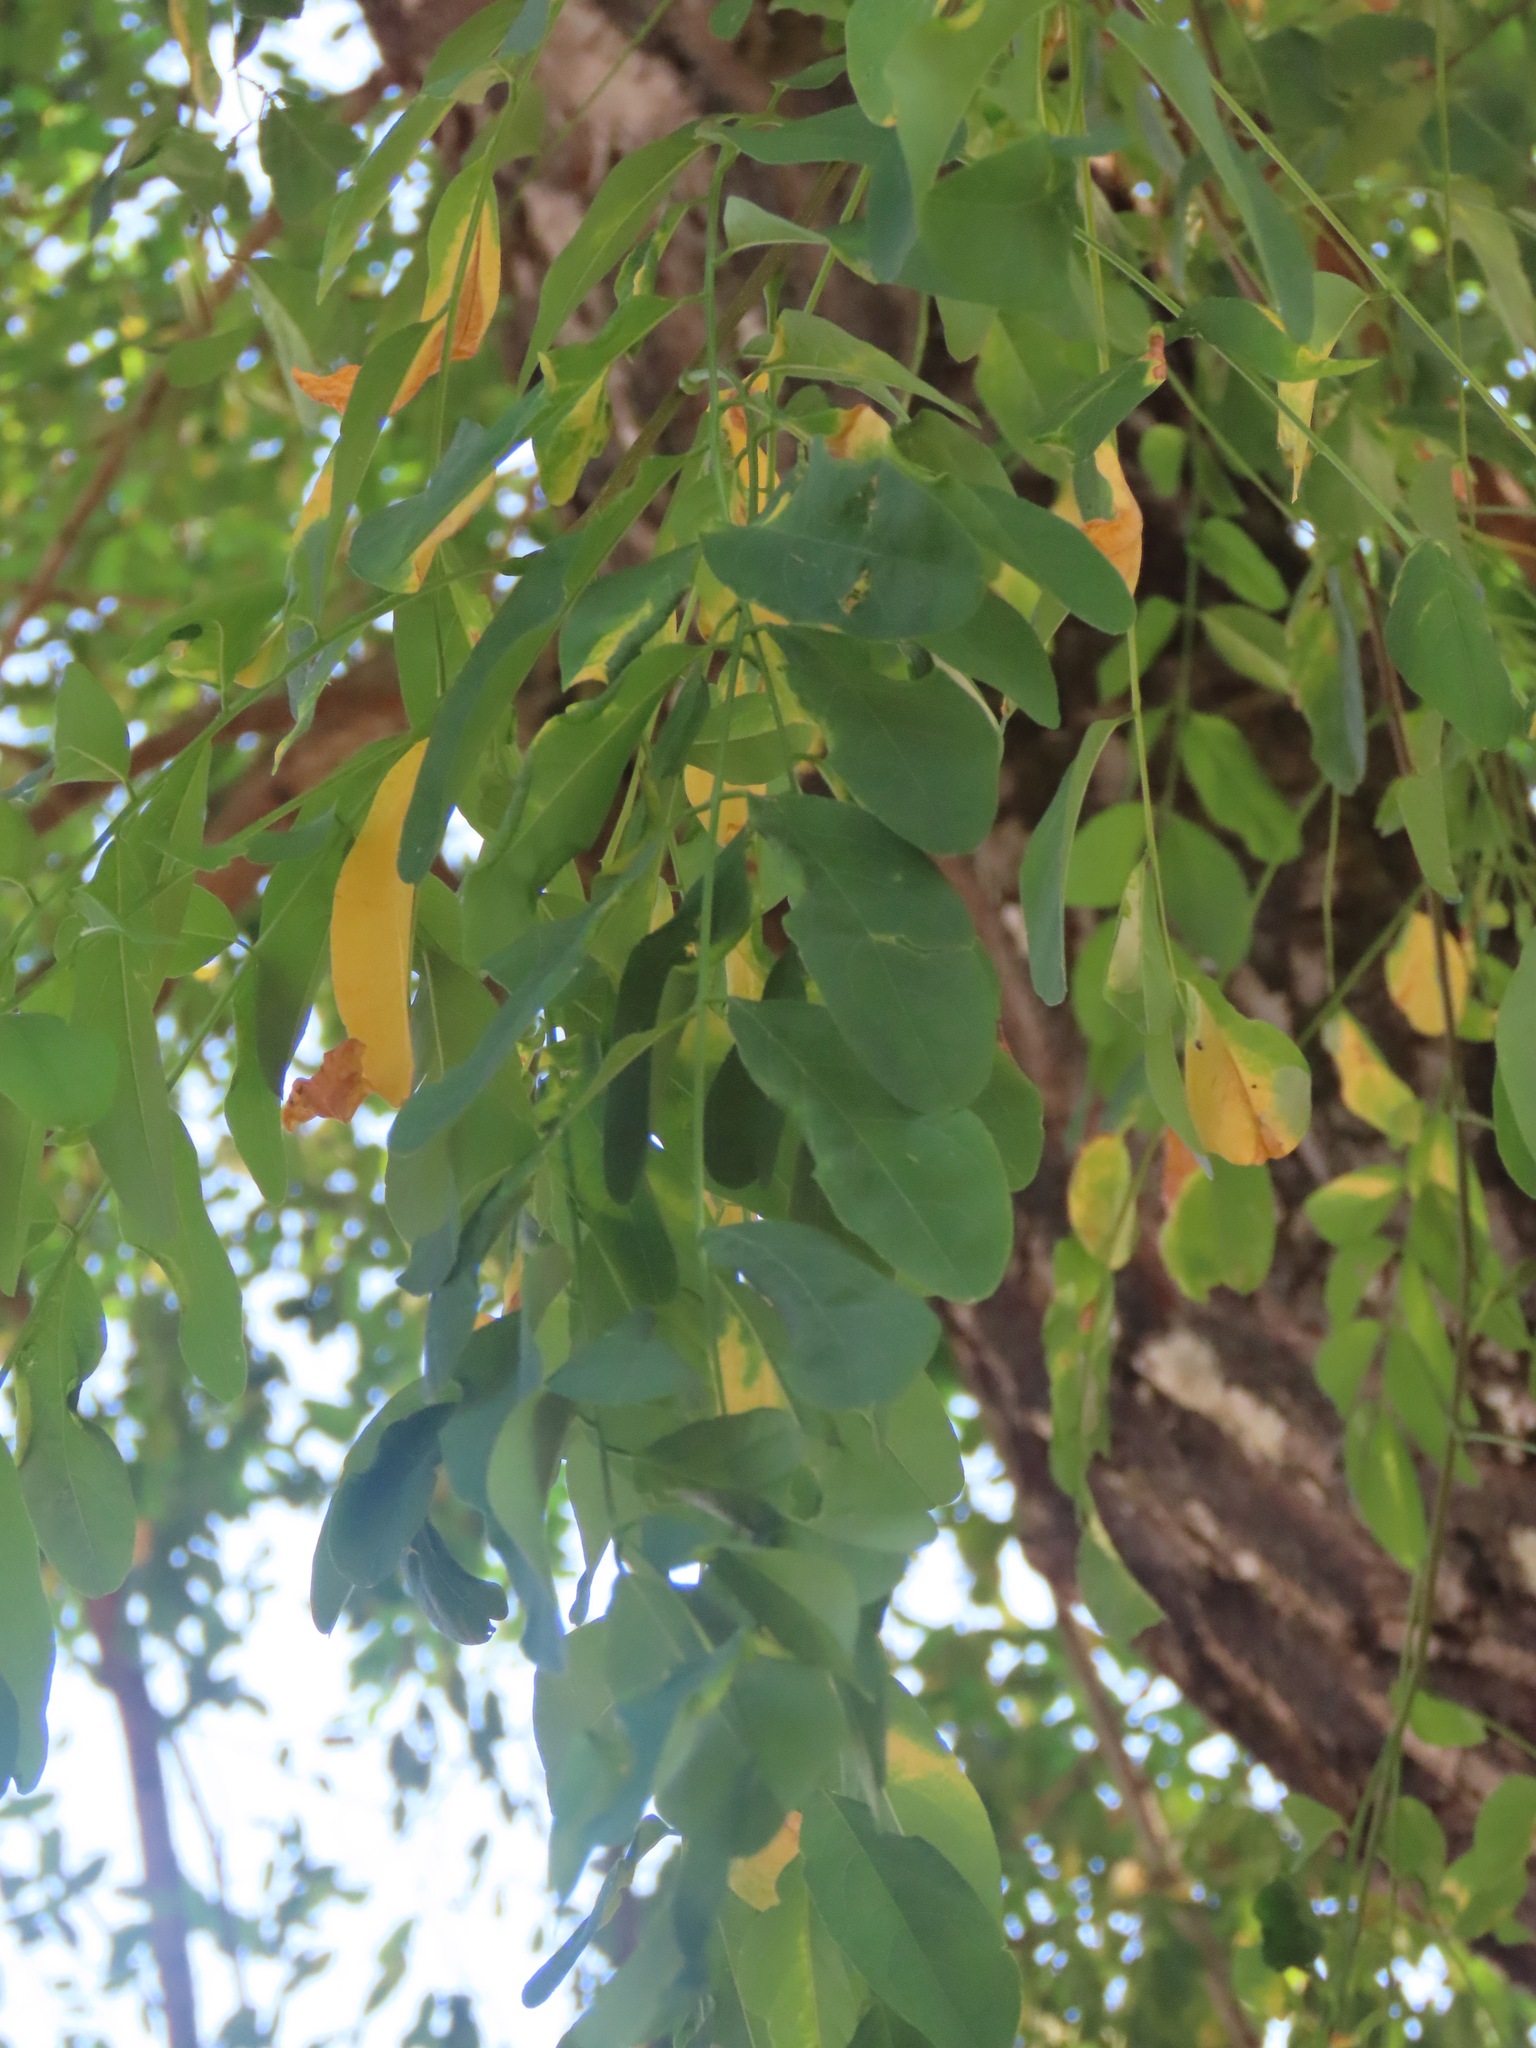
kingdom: Plantae
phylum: Tracheophyta
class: Magnoliopsida
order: Fabales
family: Fabaceae
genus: Robinia
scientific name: Robinia pseudoacacia
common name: Black locust
